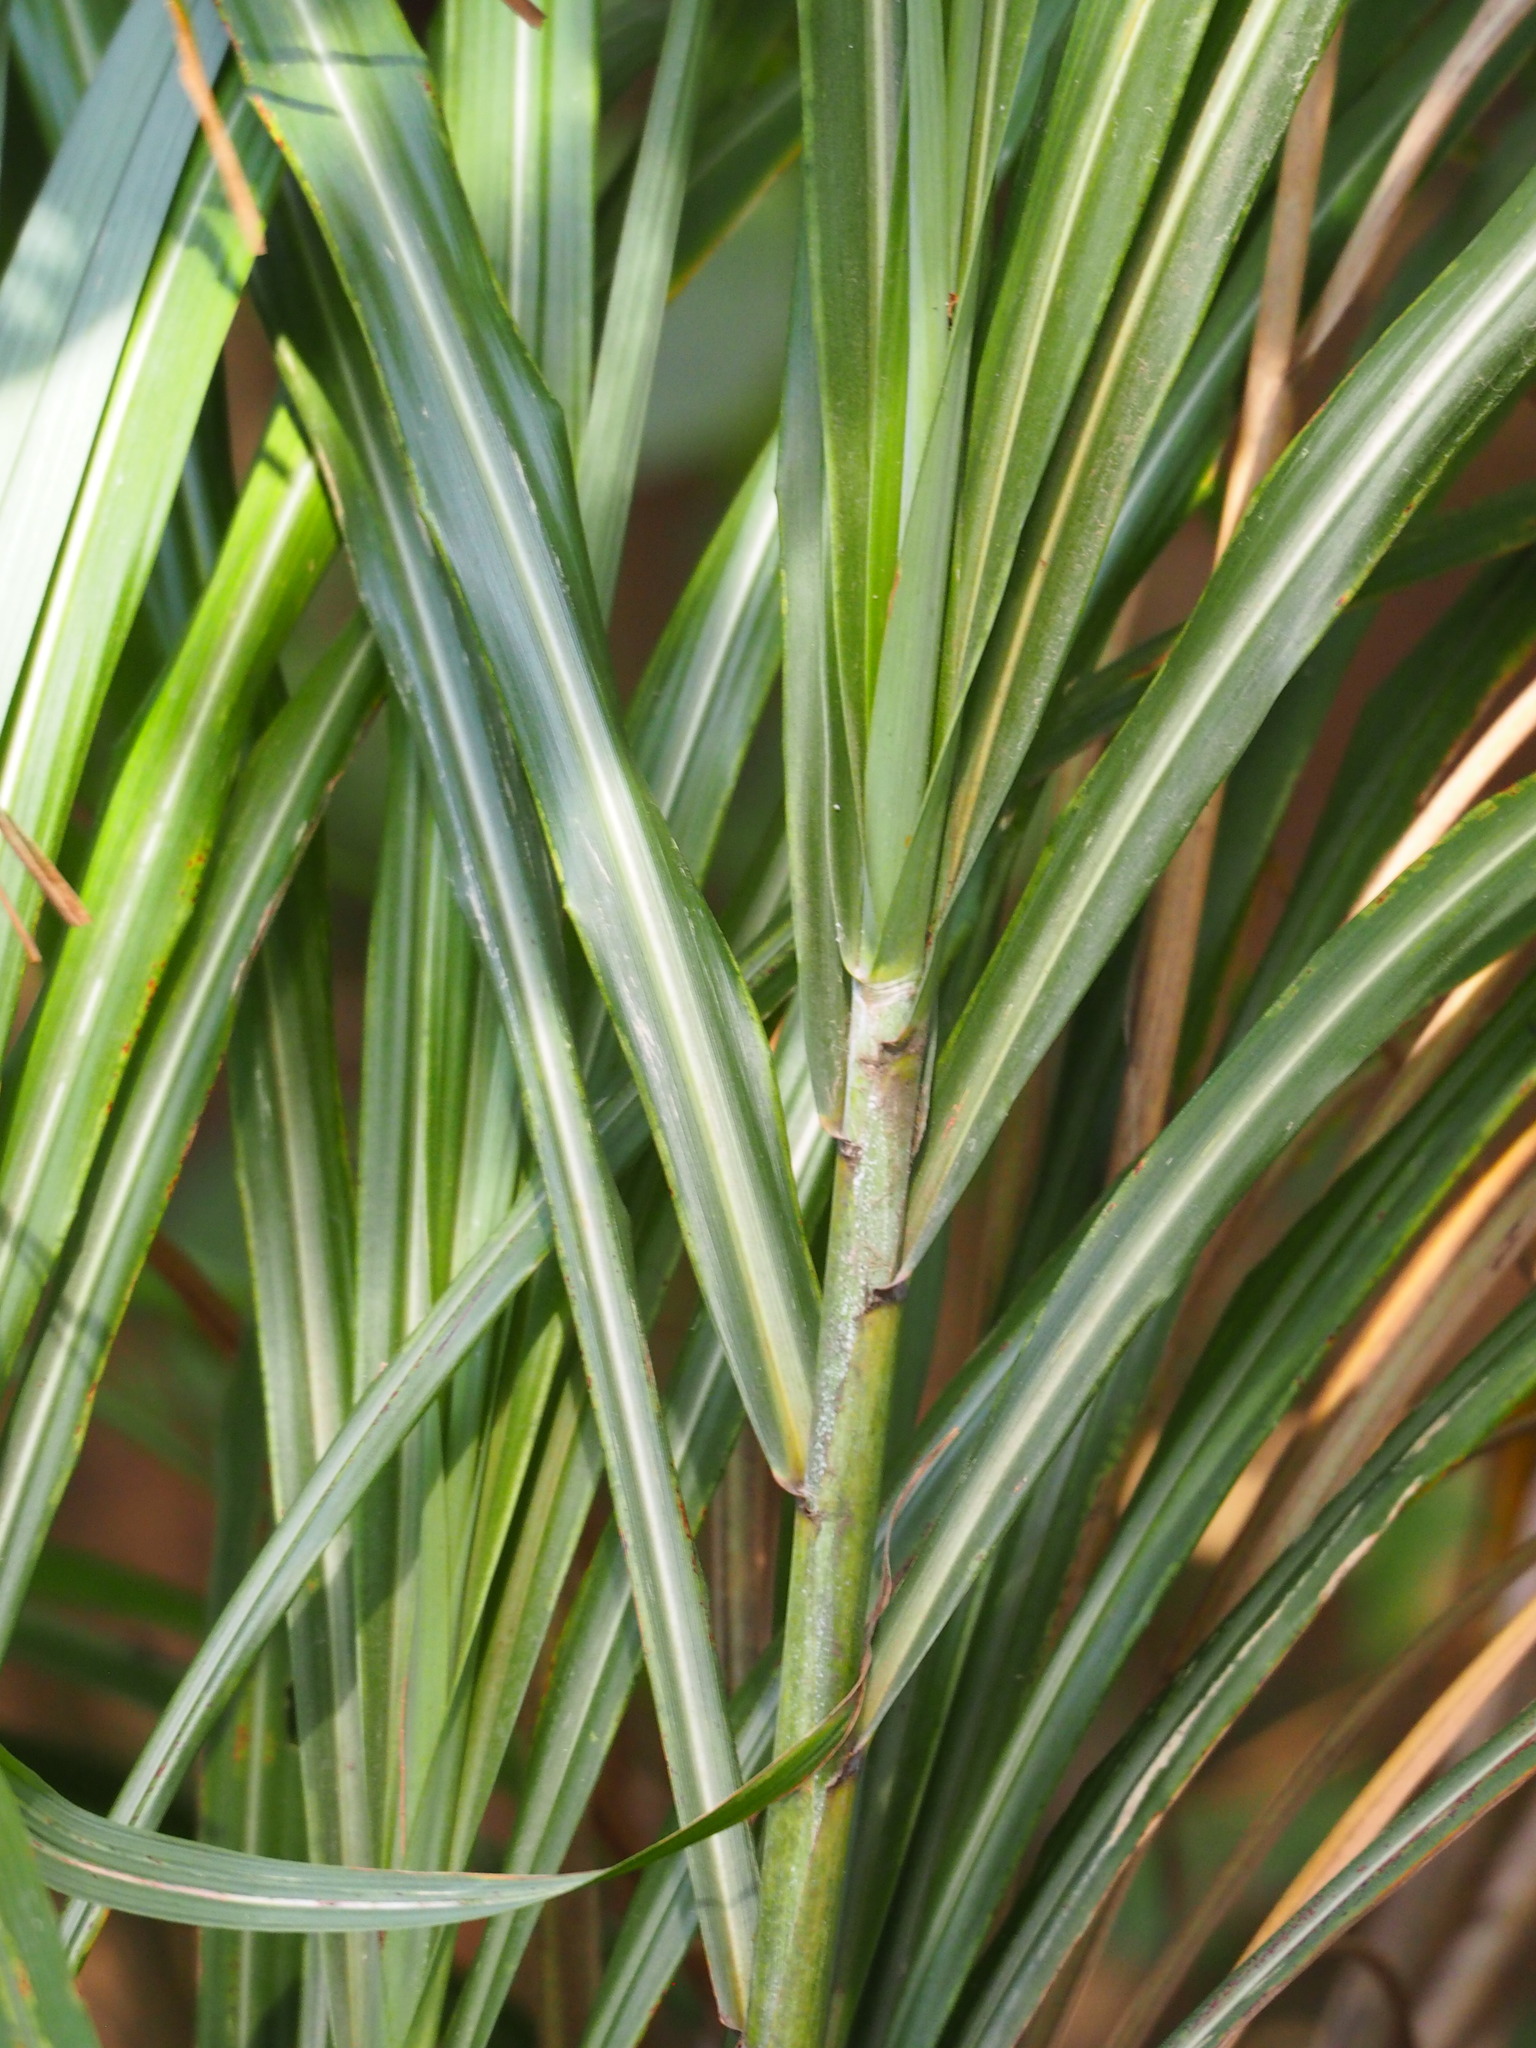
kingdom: Plantae
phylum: Tracheophyta
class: Liliopsida
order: Poales
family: Poaceae
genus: Miscanthus
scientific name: Miscanthus sinensis
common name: Chinese silvergrass
